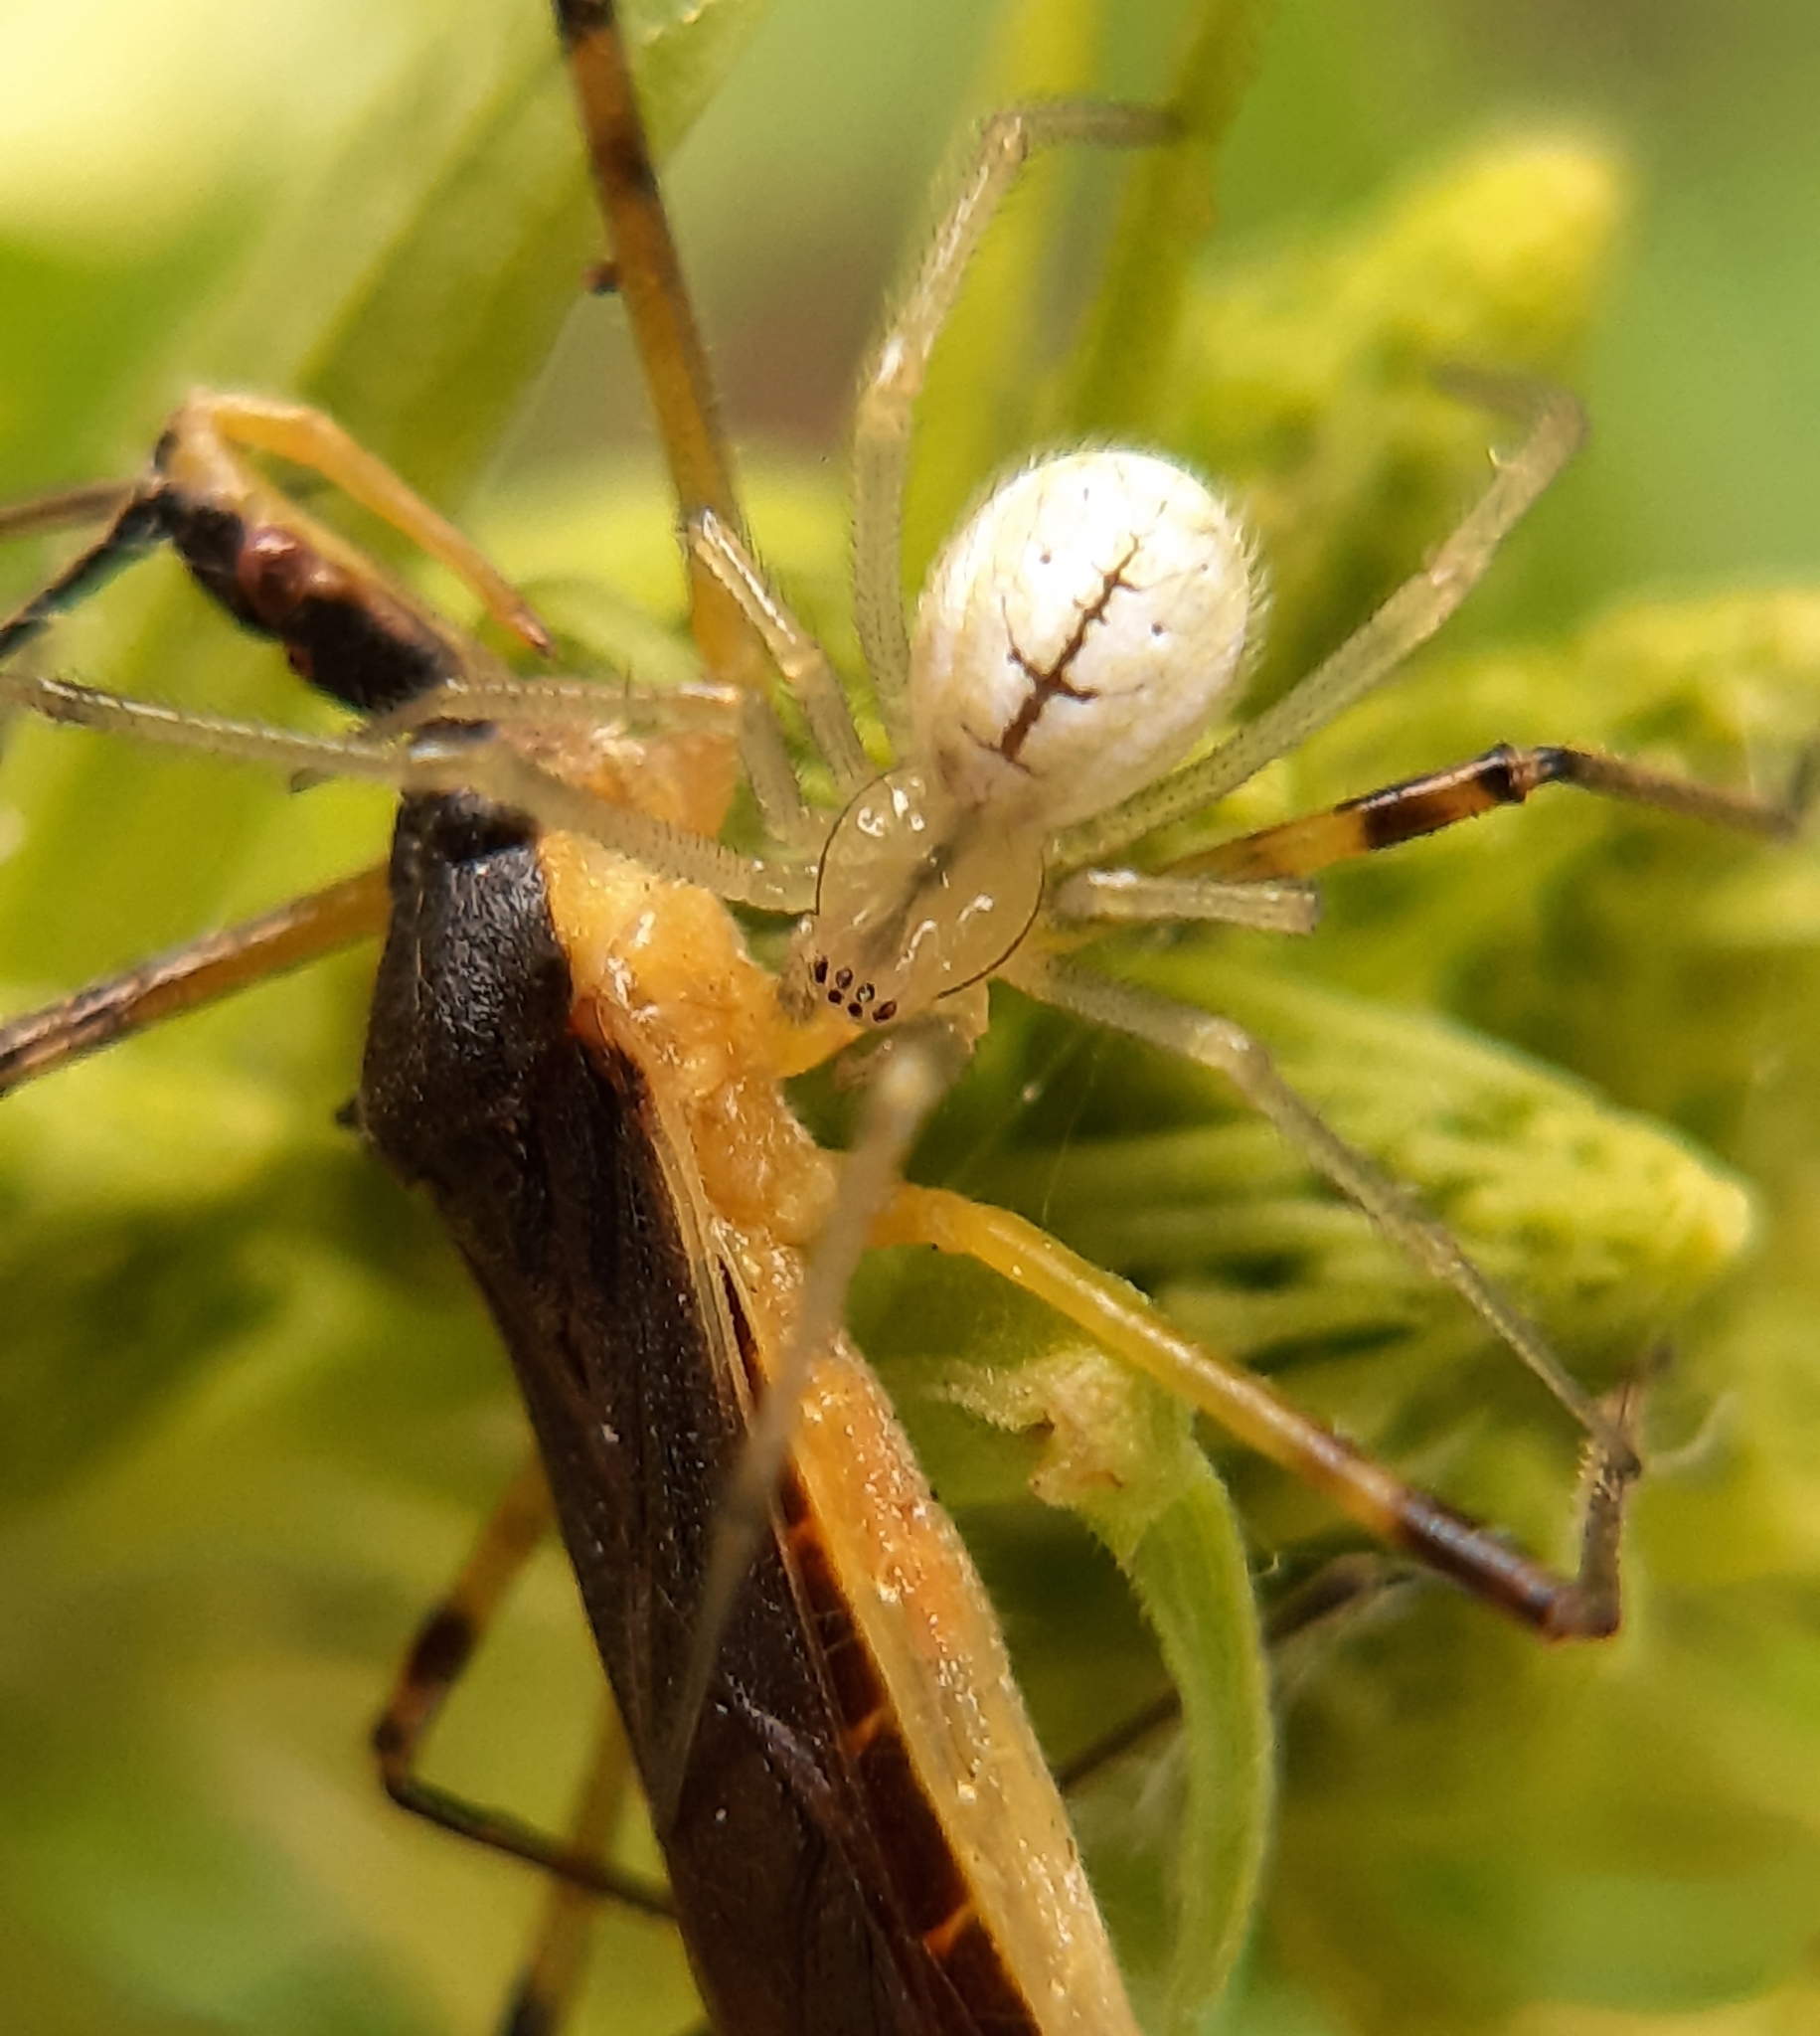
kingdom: Animalia
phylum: Arthropoda
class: Arachnida
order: Araneae
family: Theridiidae
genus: Enoplognatha
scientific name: Enoplognatha ovata
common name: Common candy-striped spider
